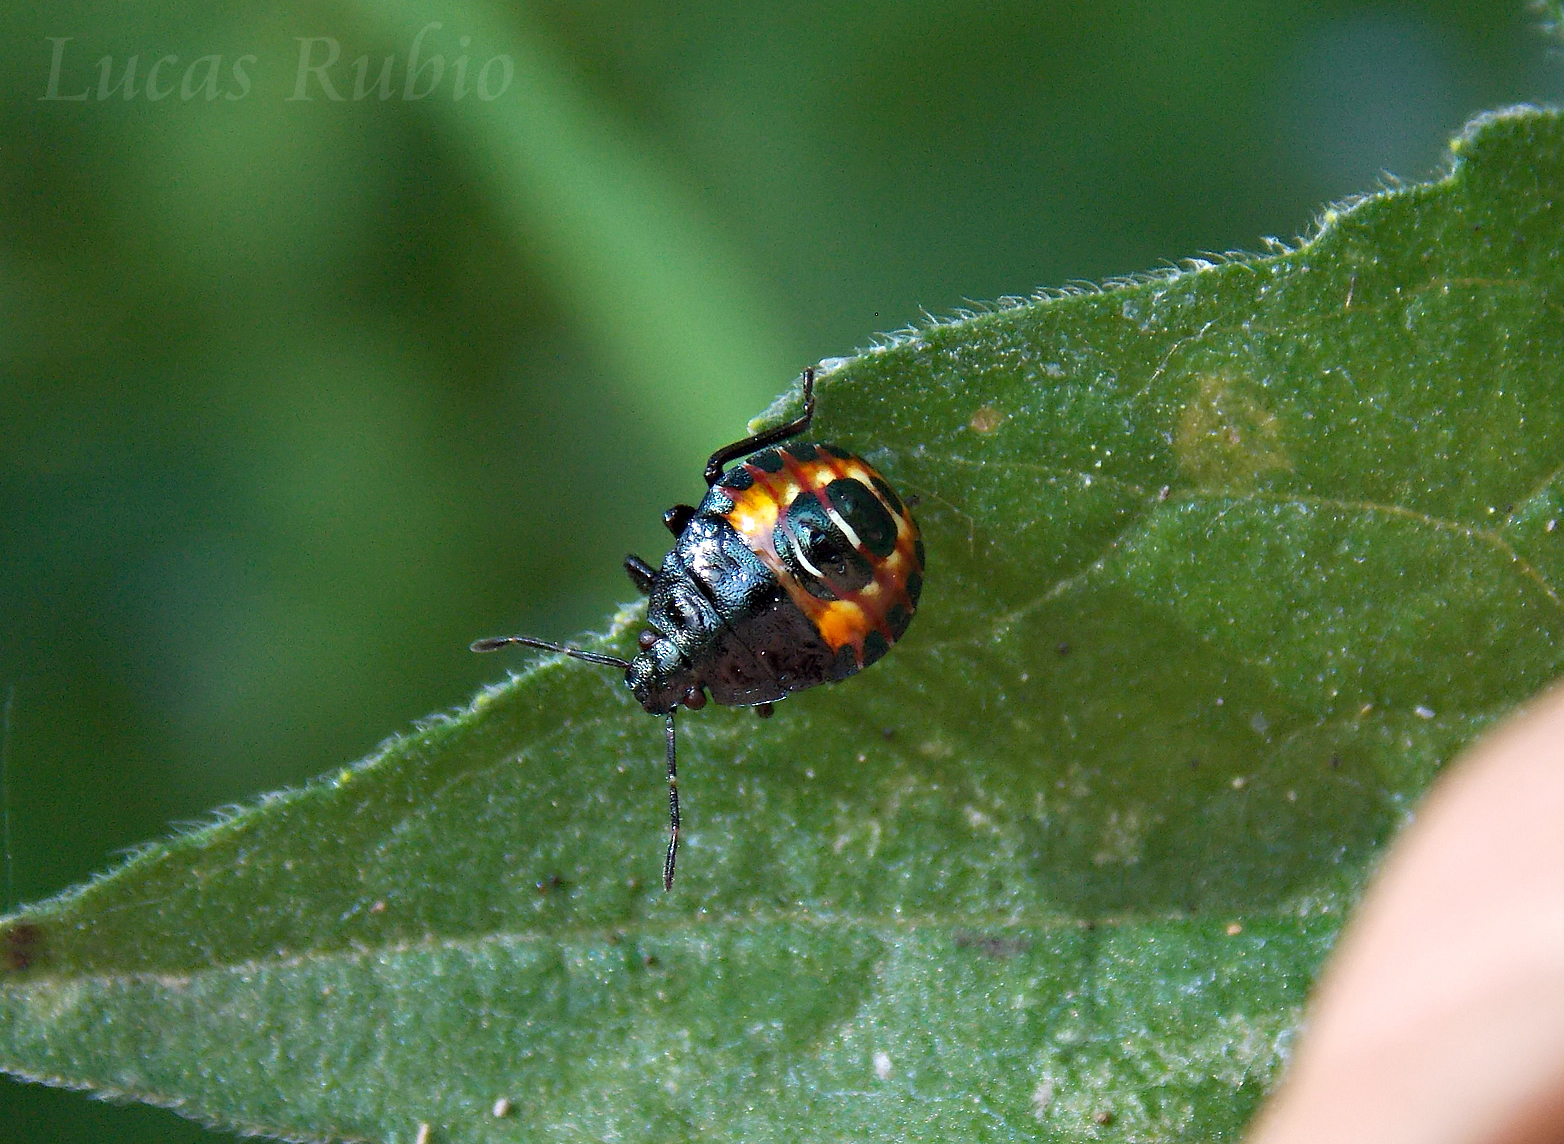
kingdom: Animalia
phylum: Arthropoda
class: Insecta
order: Hemiptera
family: Pentatomidae
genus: Podisus
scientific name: Podisus nigrispinus
